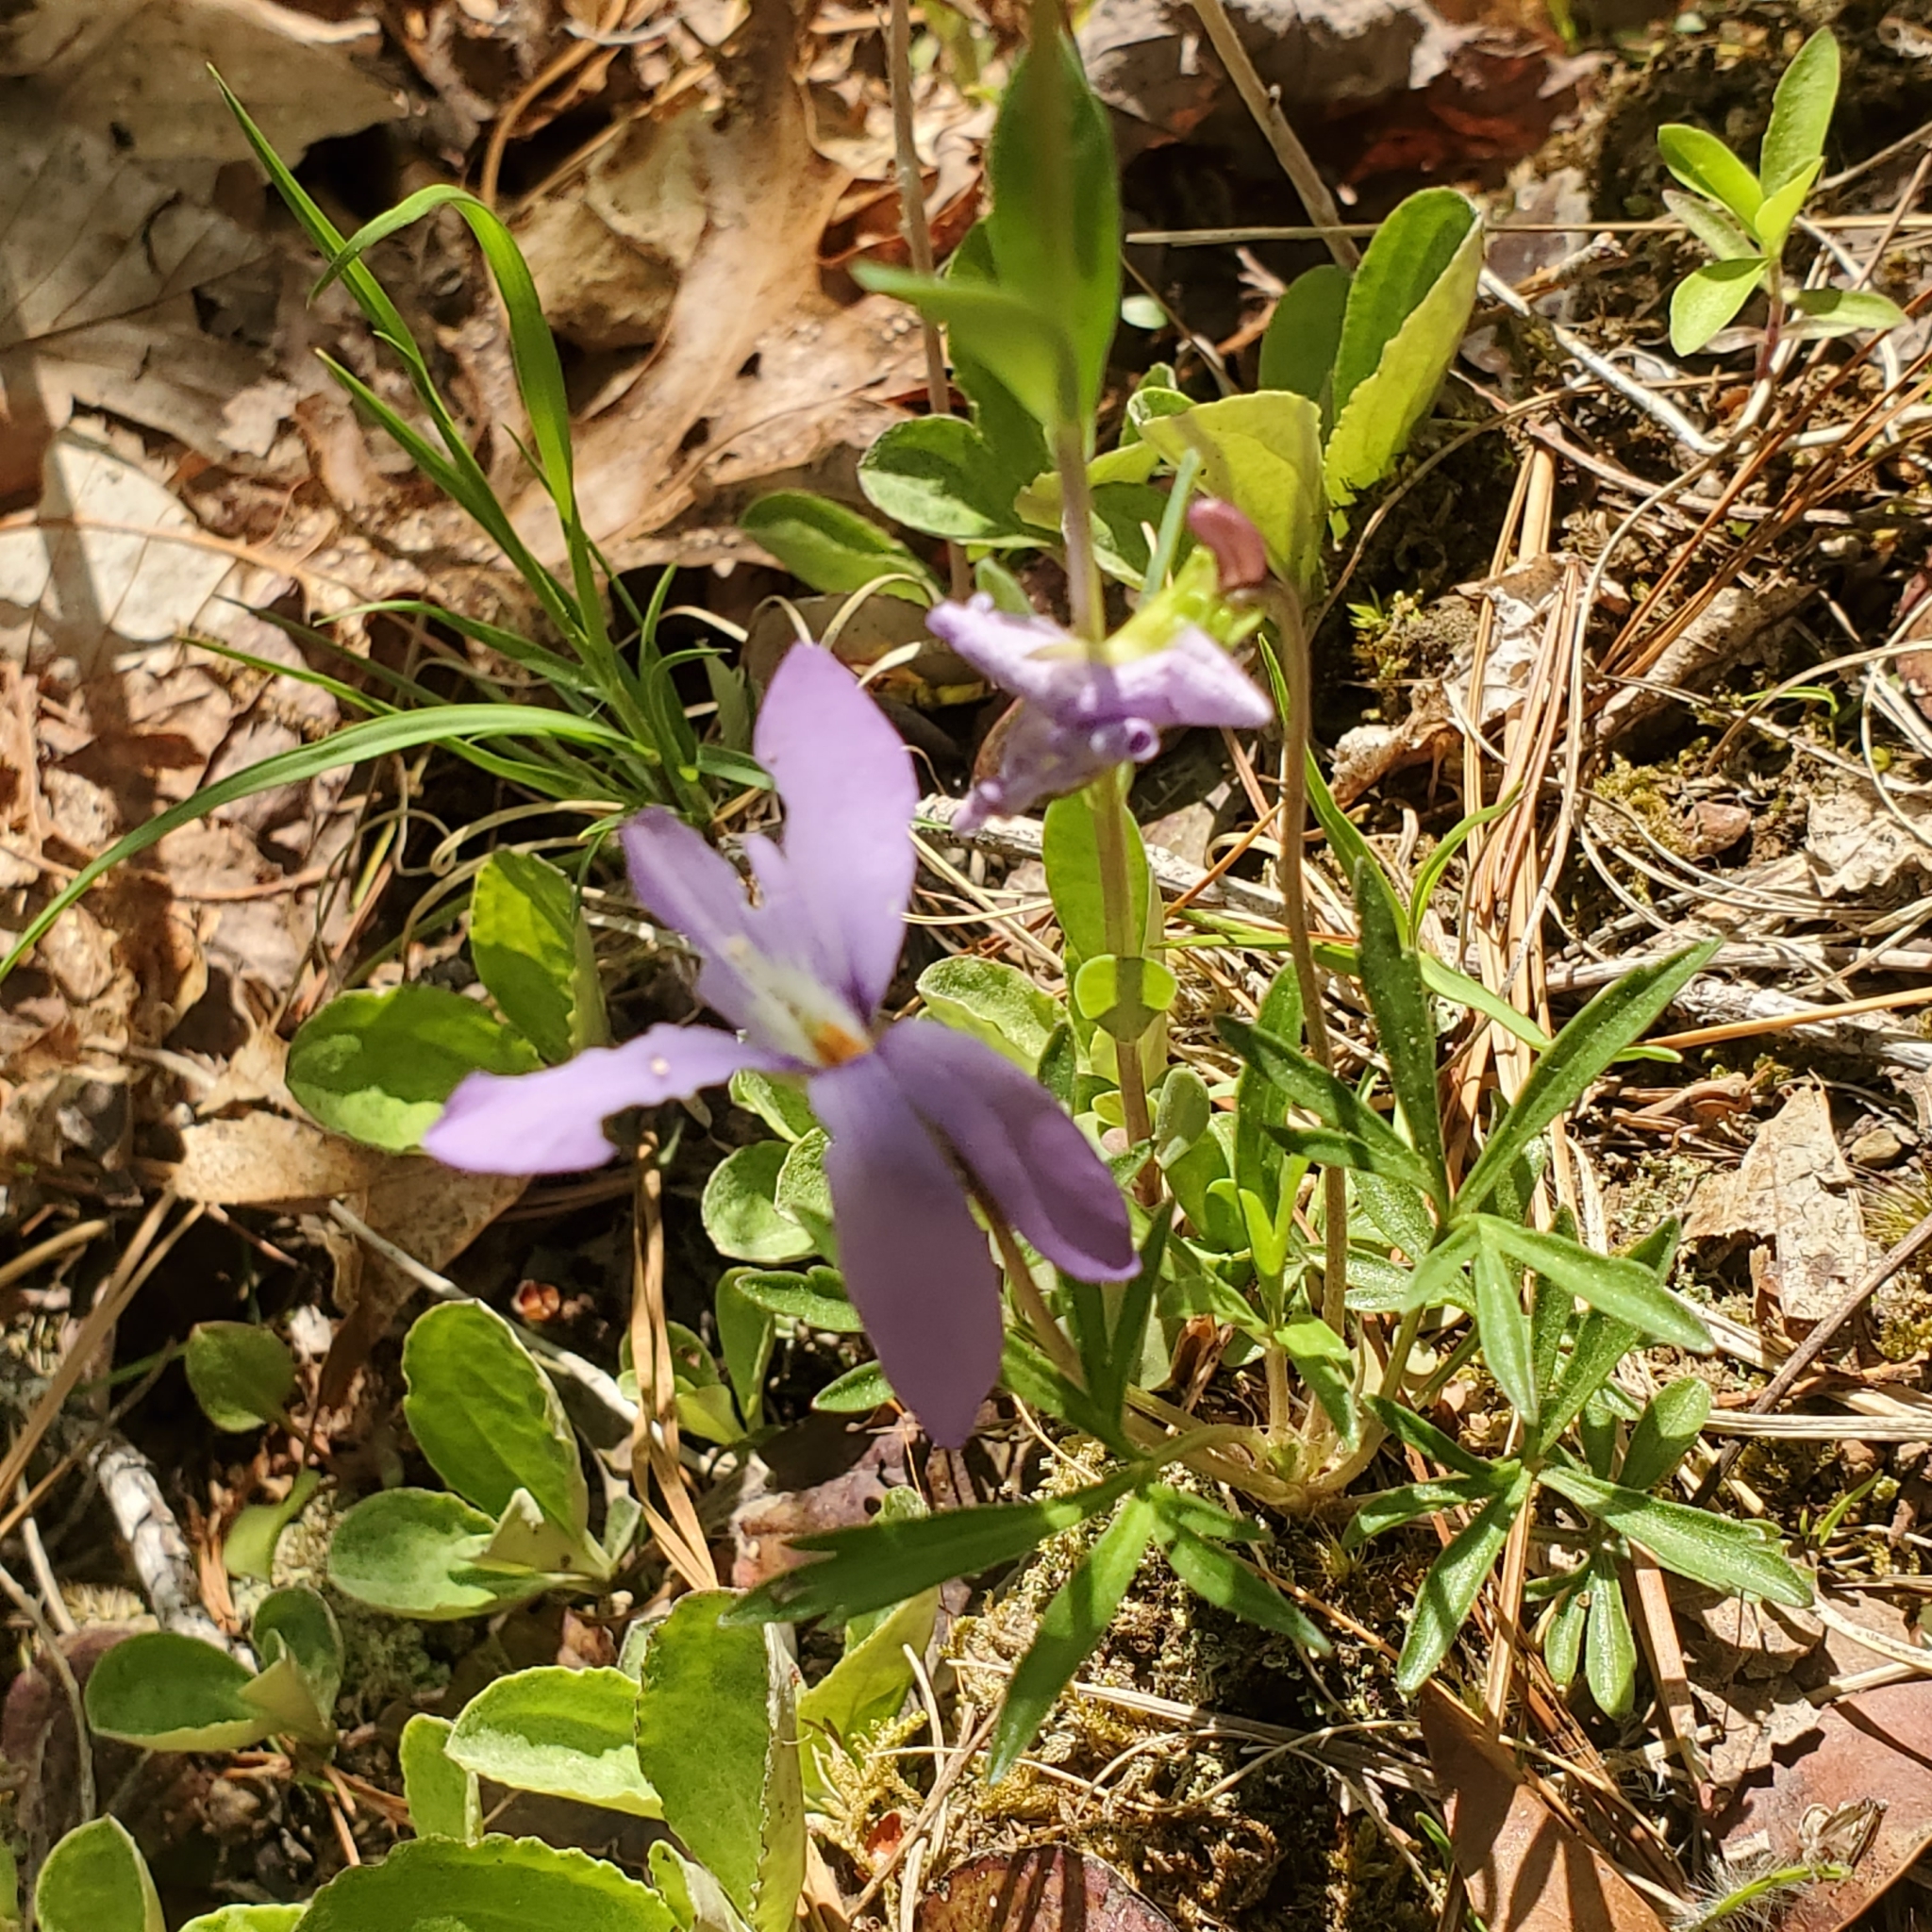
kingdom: Plantae
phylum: Tracheophyta
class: Magnoliopsida
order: Malpighiales
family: Violaceae
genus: Viola
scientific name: Viola pedata
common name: Pansy violet
